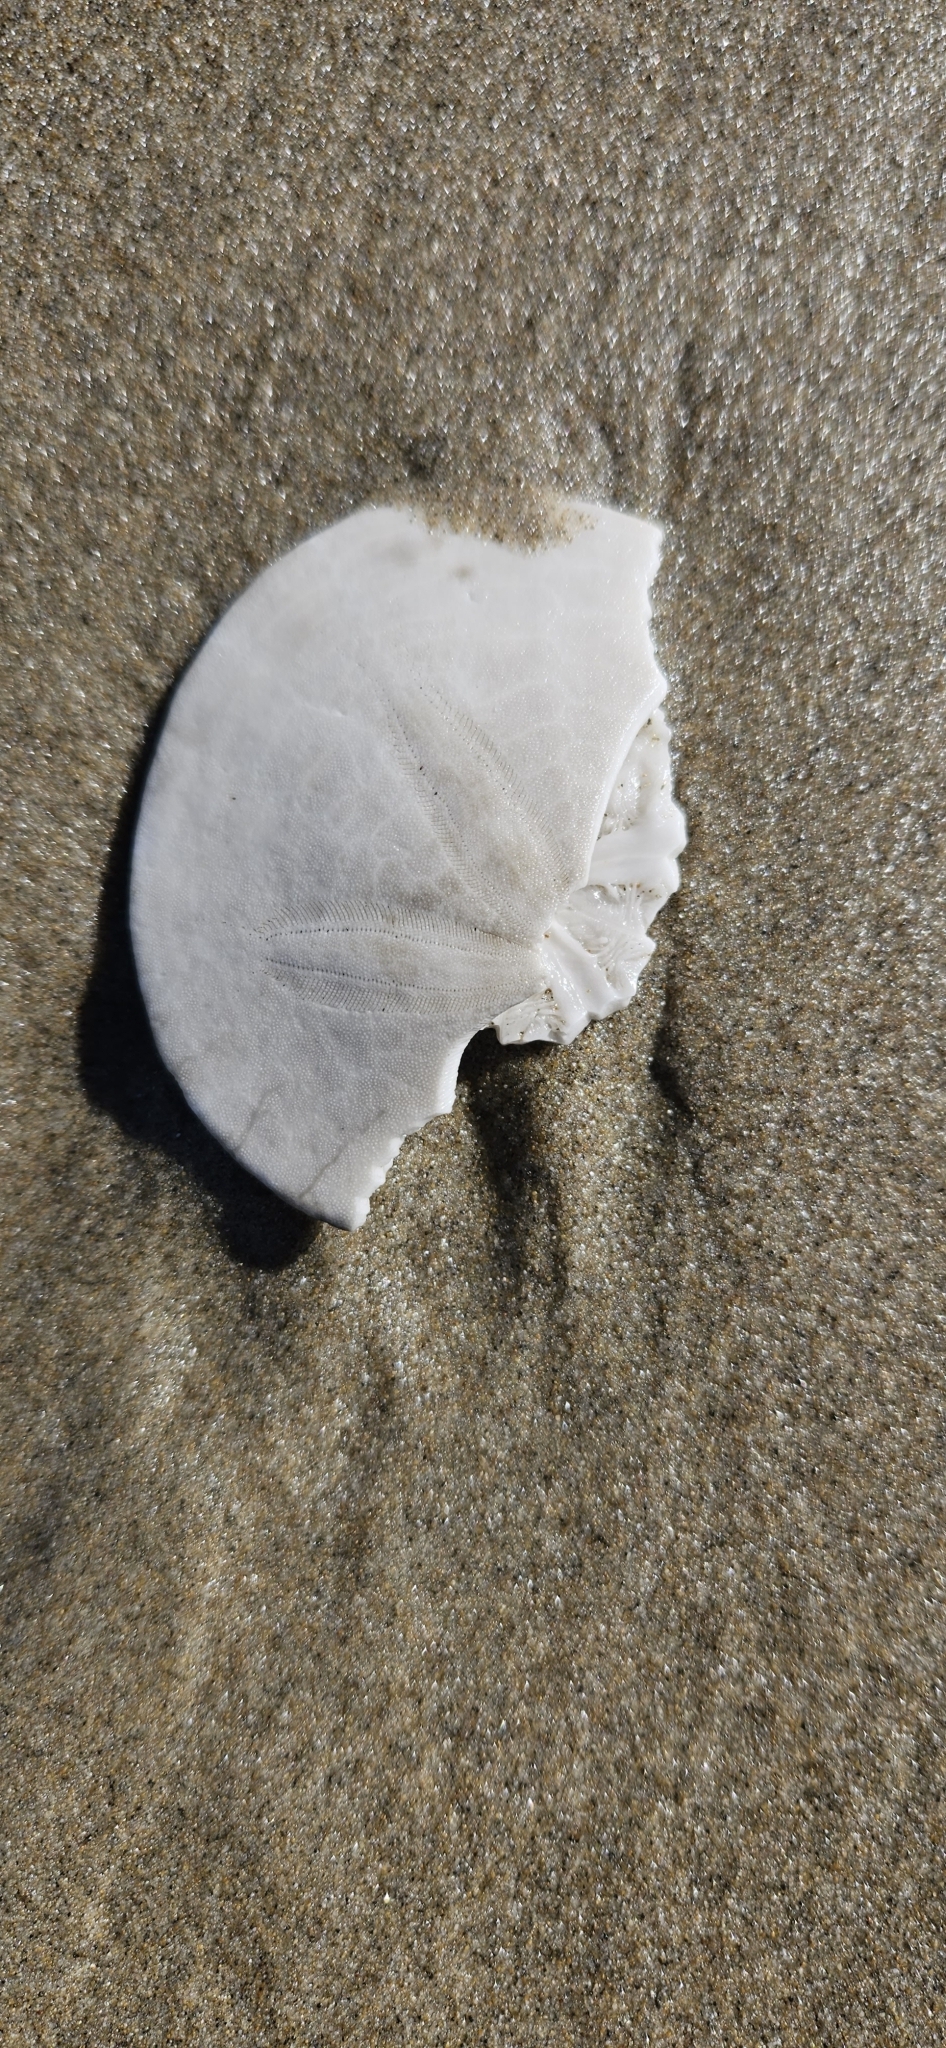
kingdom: Animalia
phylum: Echinodermata
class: Echinoidea
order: Echinolampadacea
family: Dendrasteridae
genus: Dendraster
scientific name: Dendraster excentricus
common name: Eccentric sand dollar sea urchin
